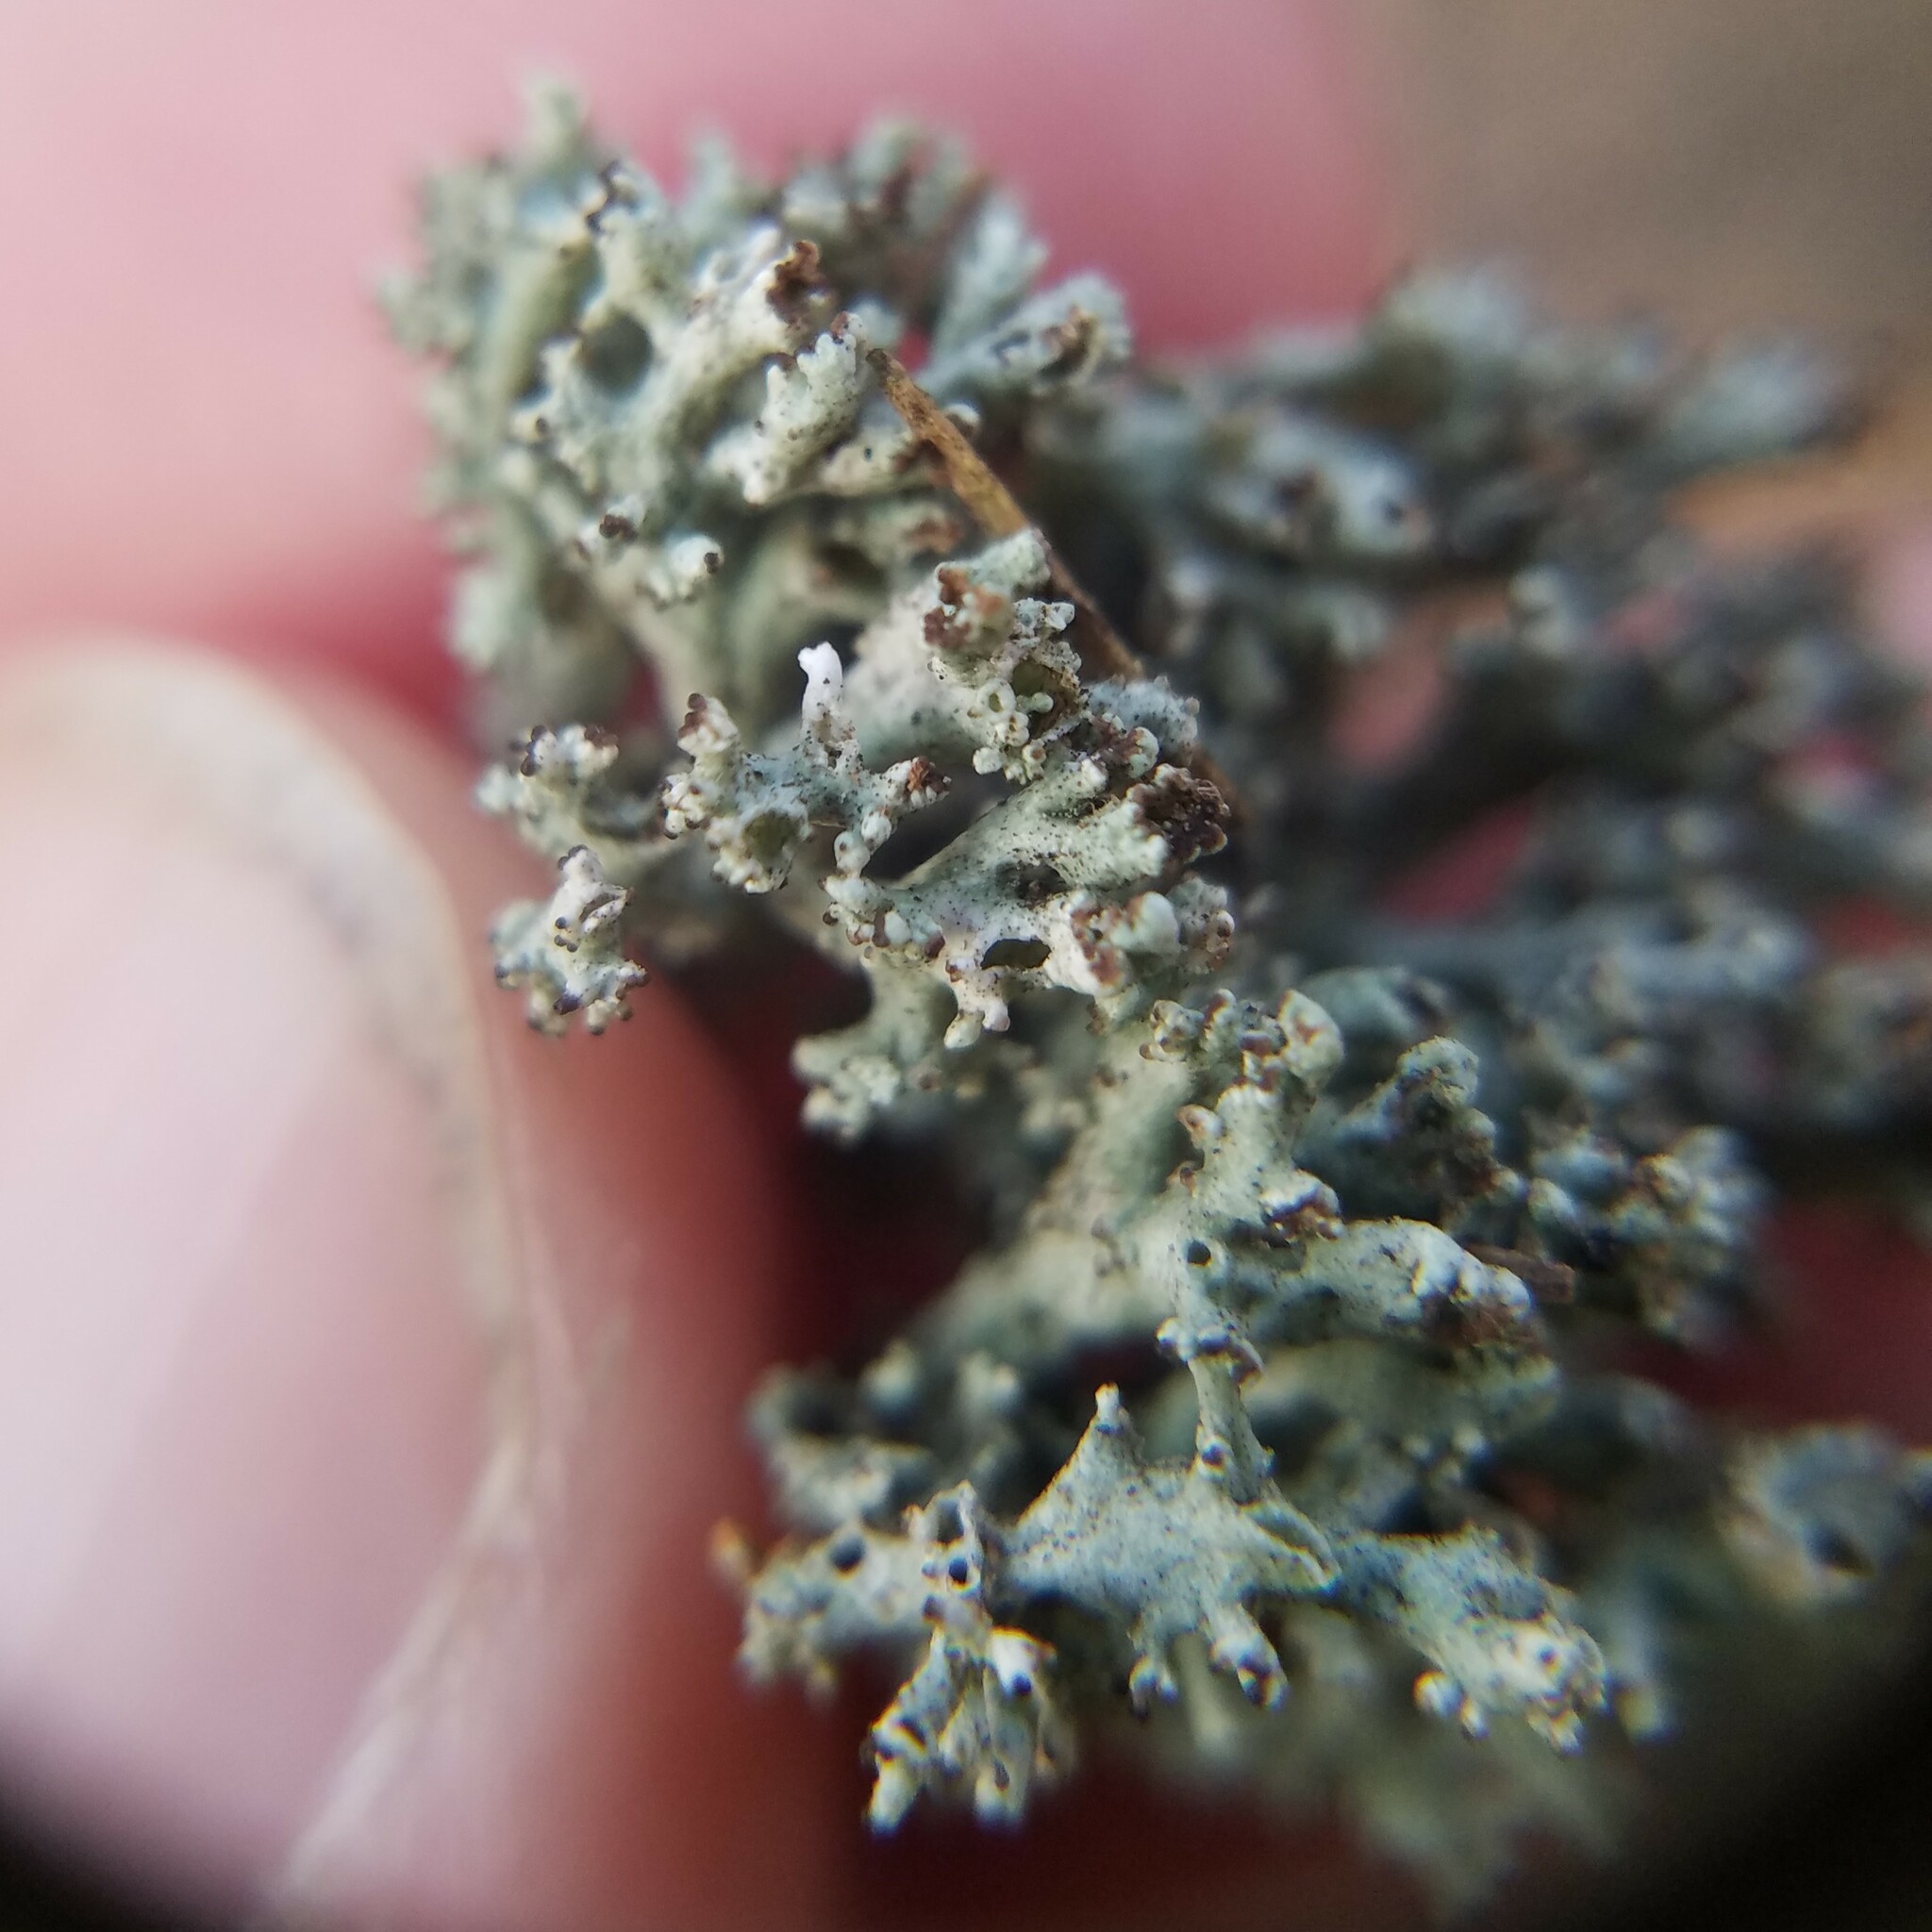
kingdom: Fungi
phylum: Ascomycota
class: Lecanoromycetes
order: Lecanorales
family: Cladoniaceae
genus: Pycnothelia
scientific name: Pycnothelia papillaria
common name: Nipple lichen
